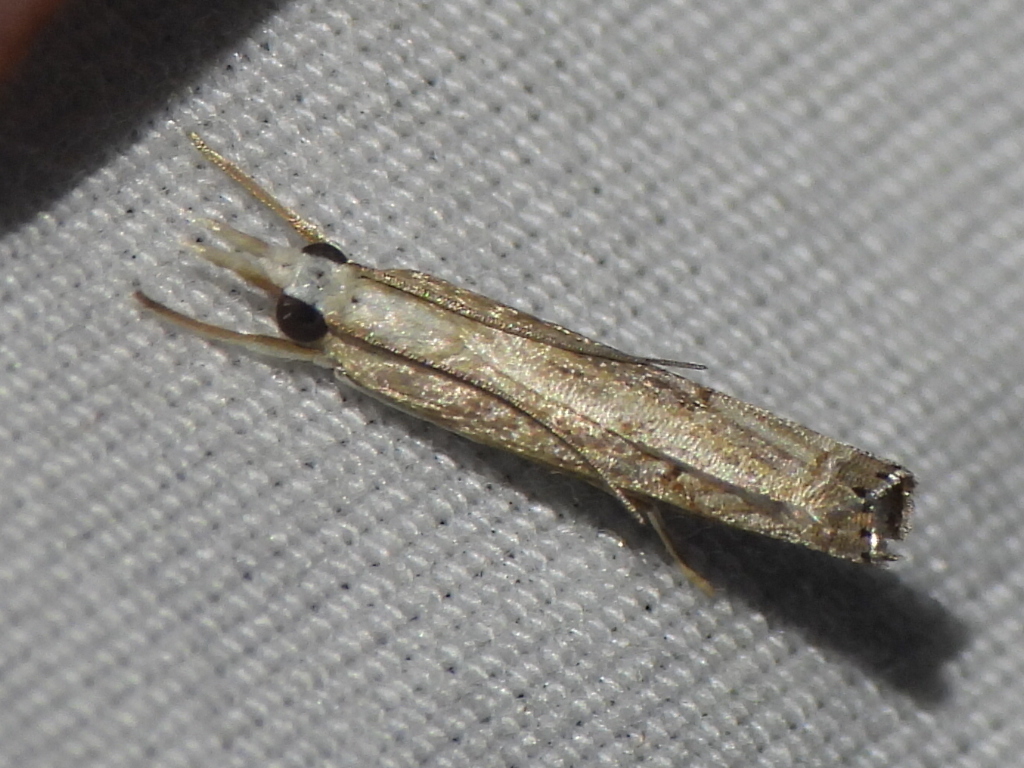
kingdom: Animalia
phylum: Arthropoda
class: Insecta
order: Lepidoptera
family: Crambidae
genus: Parapediasia
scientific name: Parapediasia teterellus
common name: Bluegrass webworm moth
